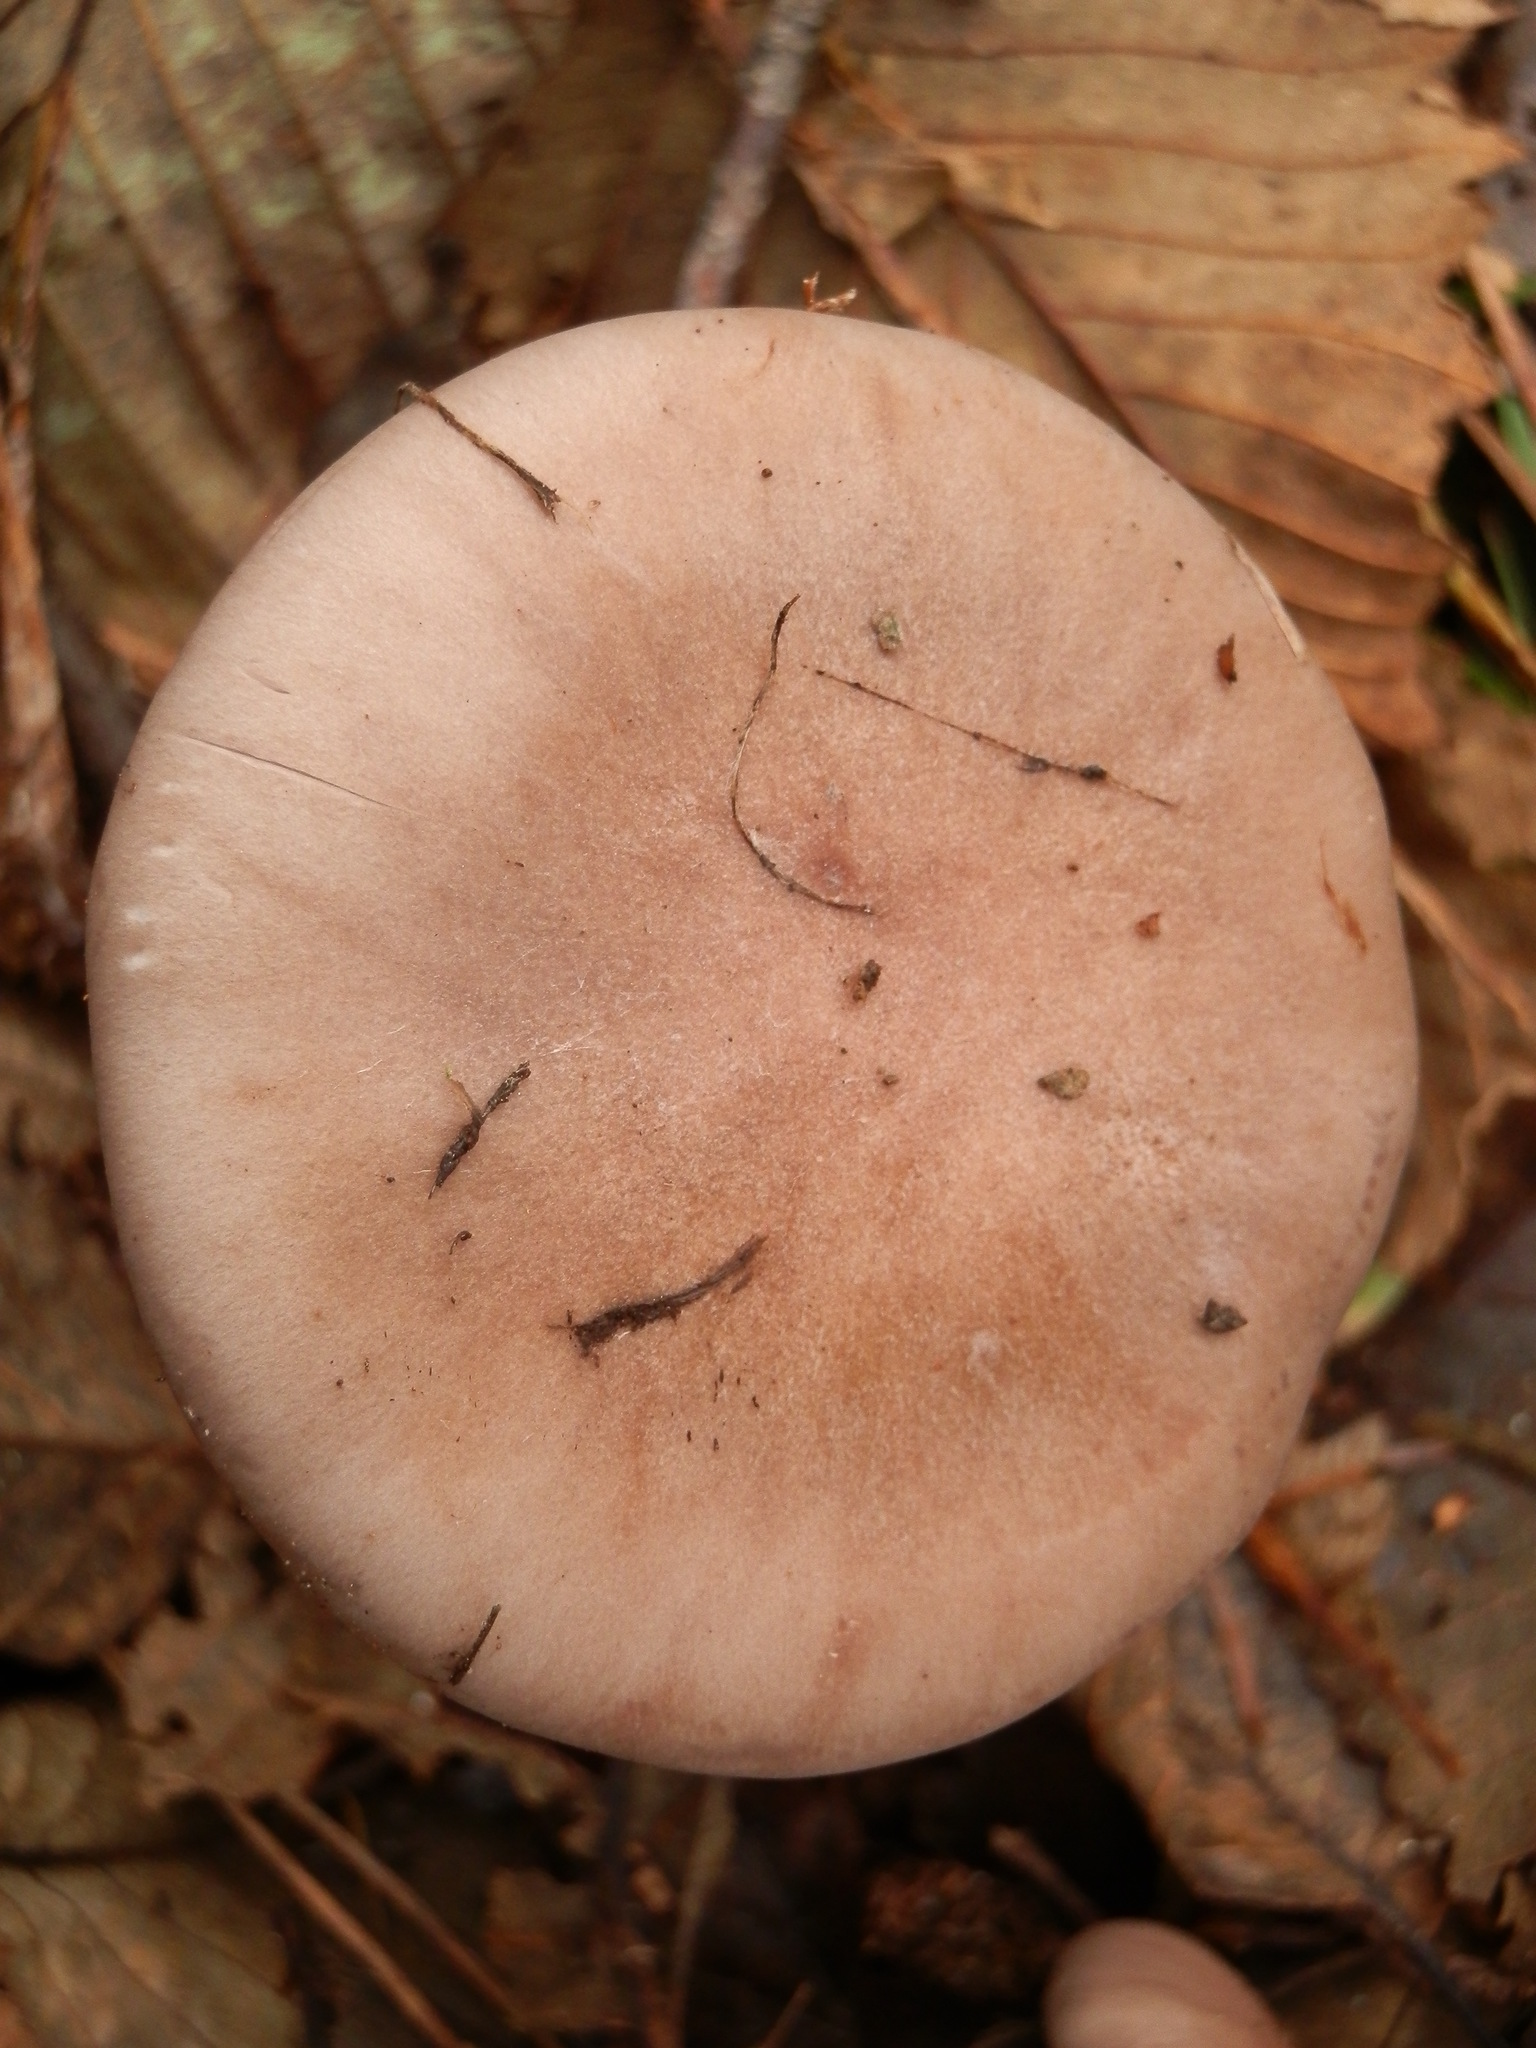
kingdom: Fungi
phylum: Basidiomycota
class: Agaricomycetes
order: Agaricales
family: Tricholomataceae
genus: Collybia
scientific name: Collybia
